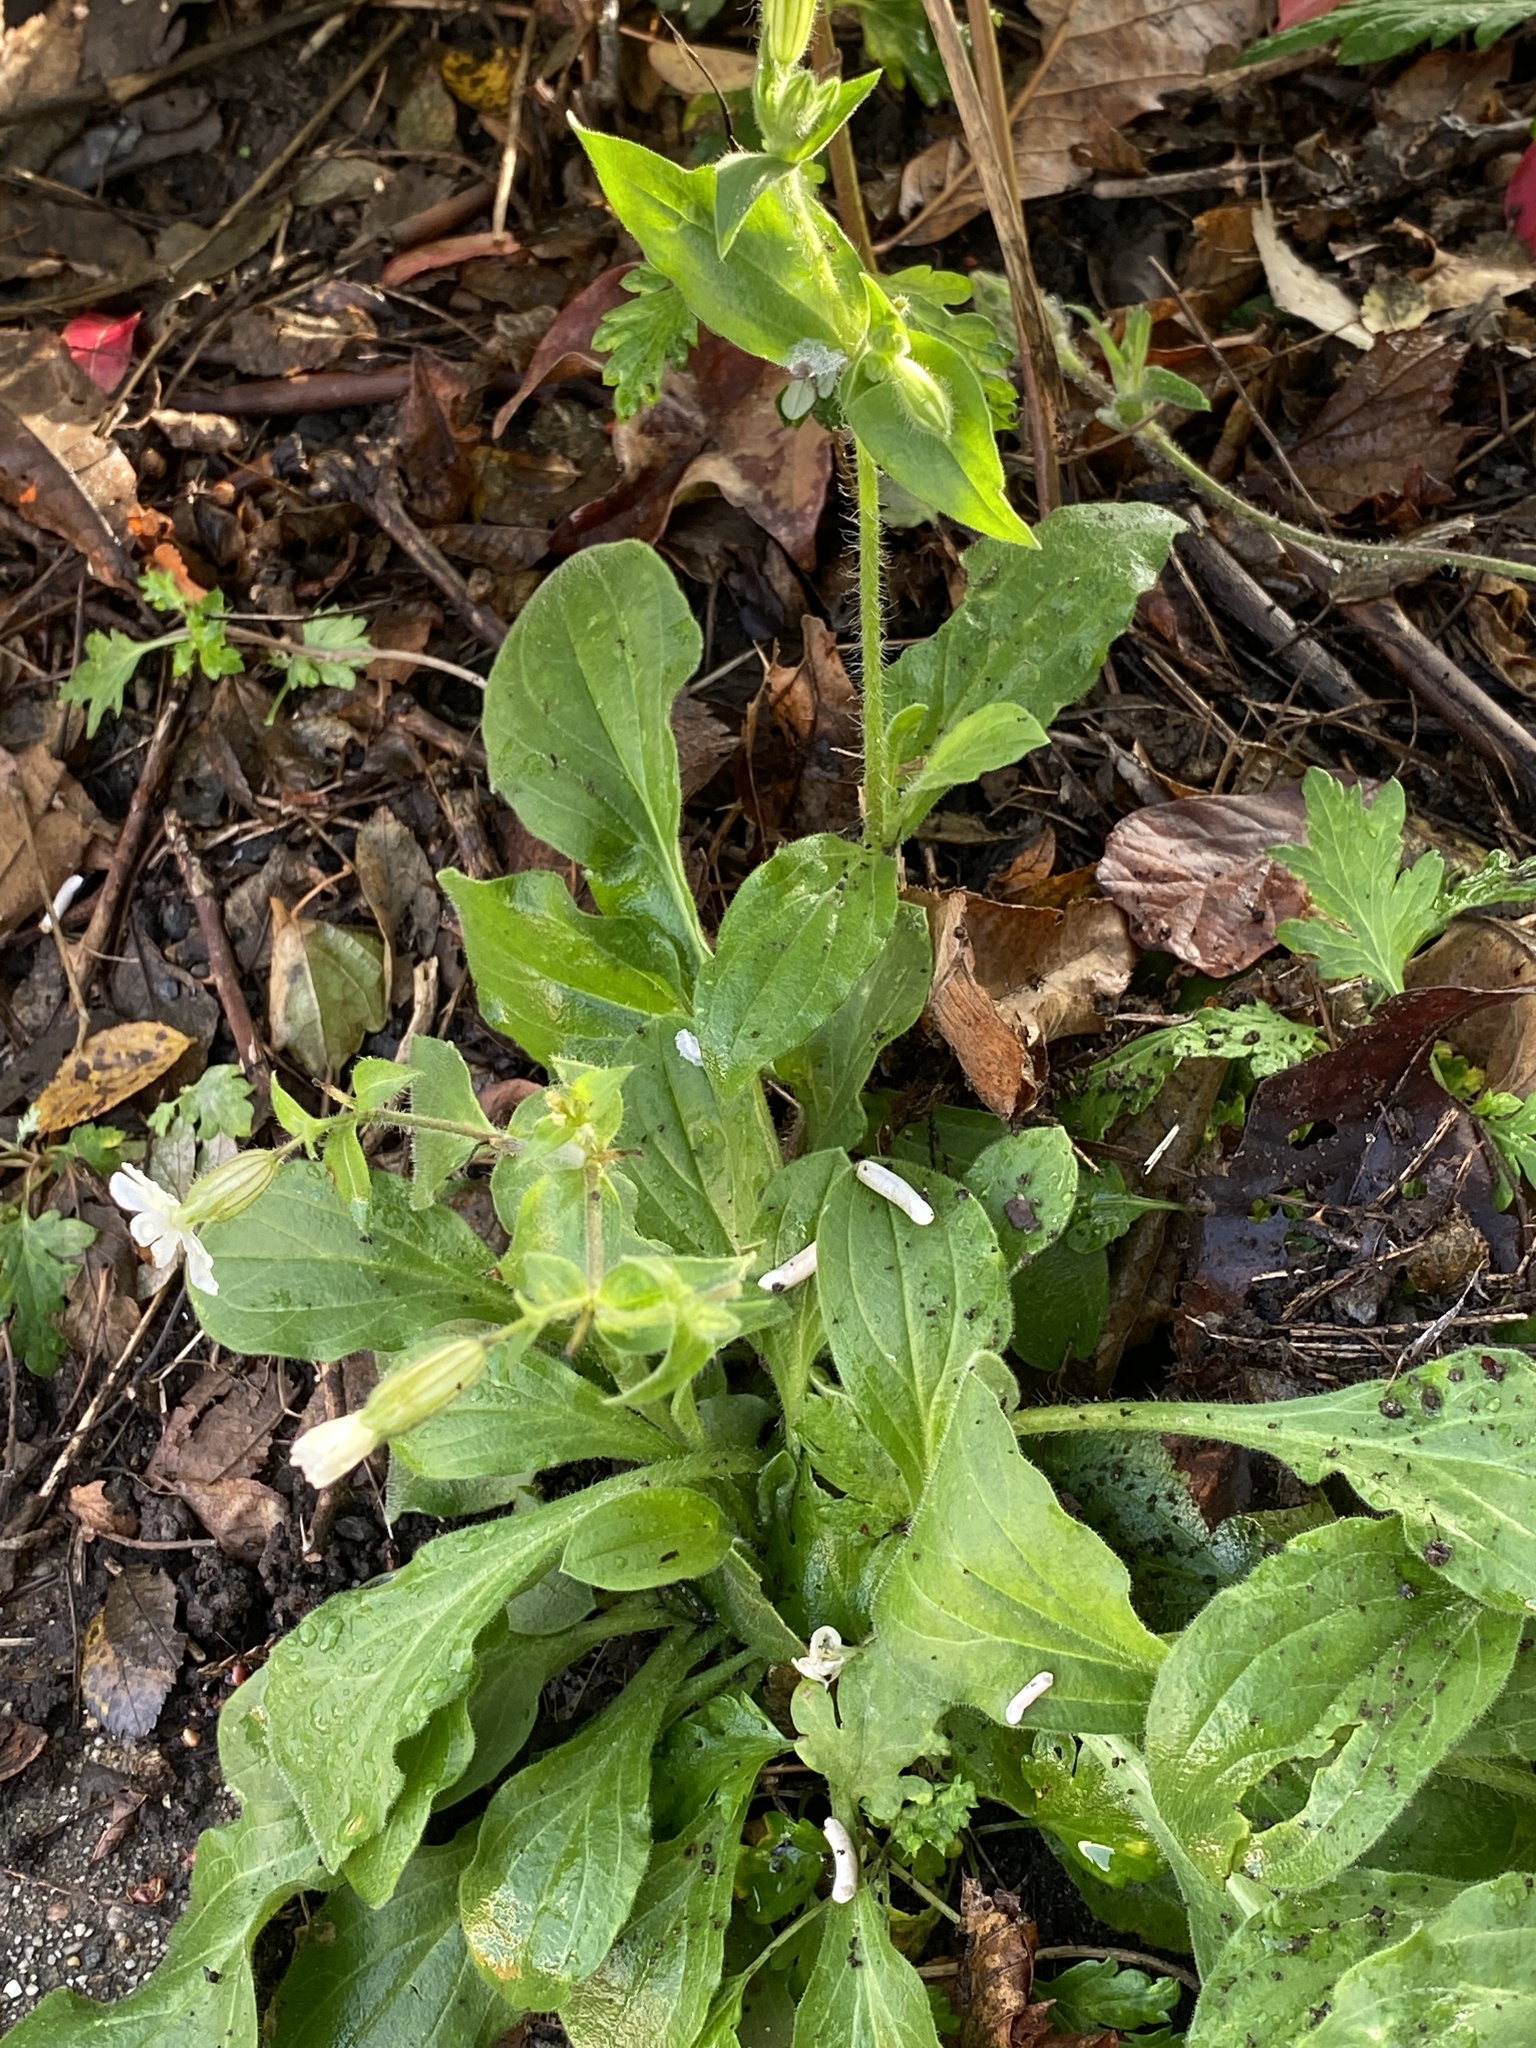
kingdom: Plantae
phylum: Tracheophyta
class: Magnoliopsida
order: Caryophyllales
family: Caryophyllaceae
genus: Silene
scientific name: Silene latifolia
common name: White campion
